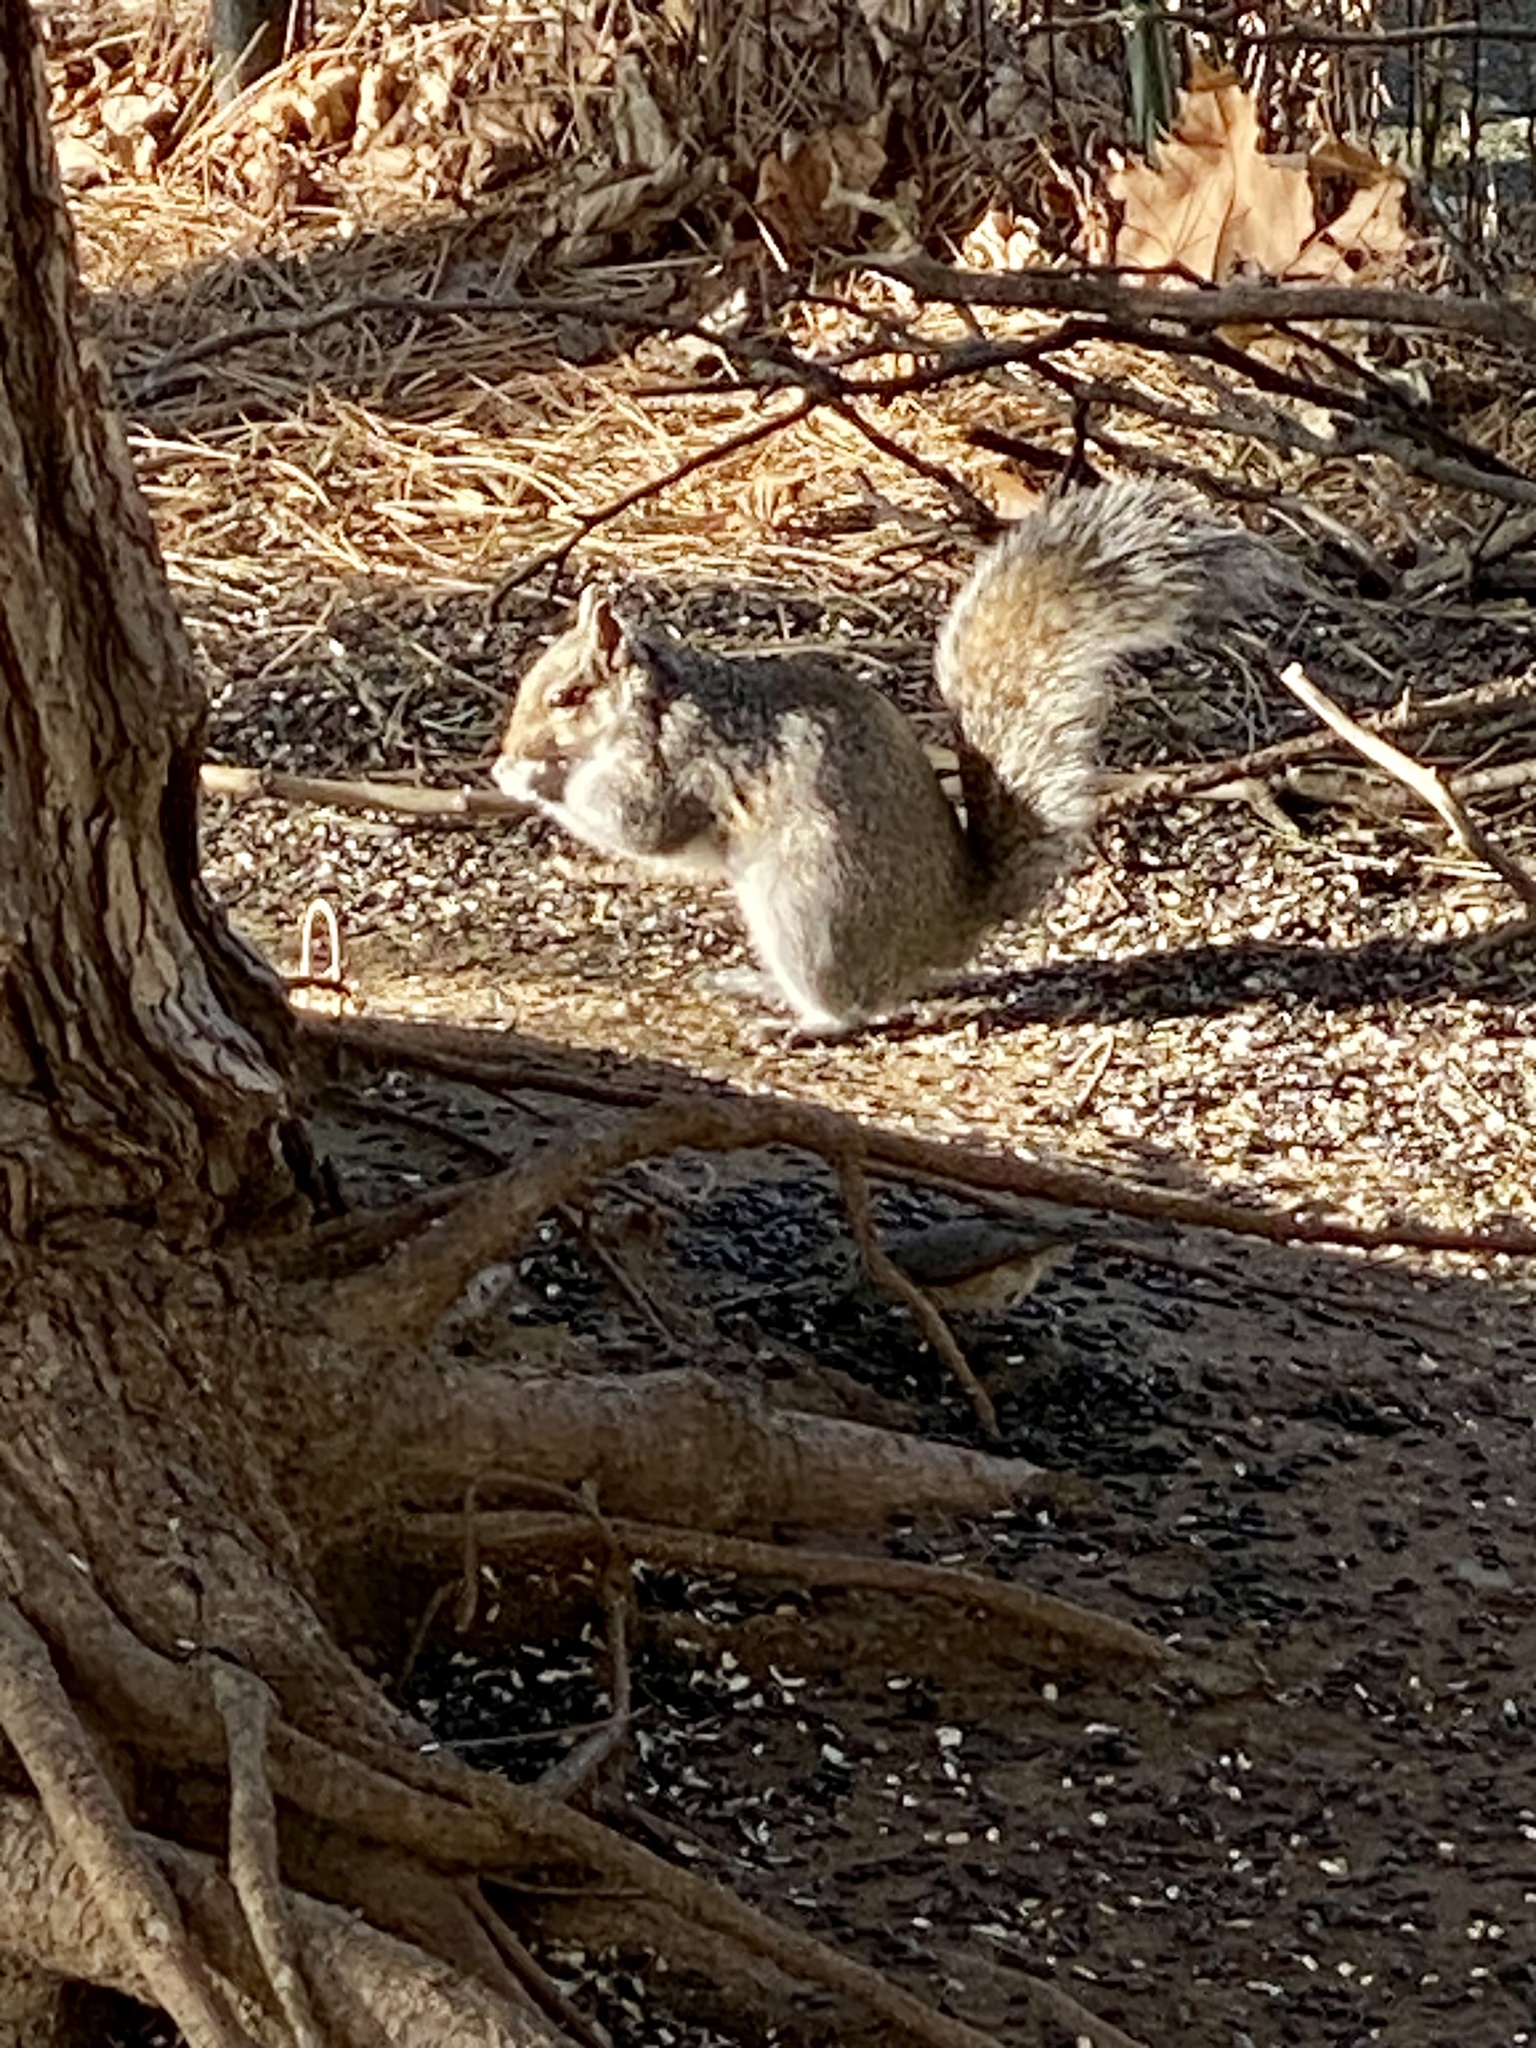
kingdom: Animalia
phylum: Chordata
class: Mammalia
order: Rodentia
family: Sciuridae
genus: Sciurus
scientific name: Sciurus carolinensis
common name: Eastern gray squirrel
